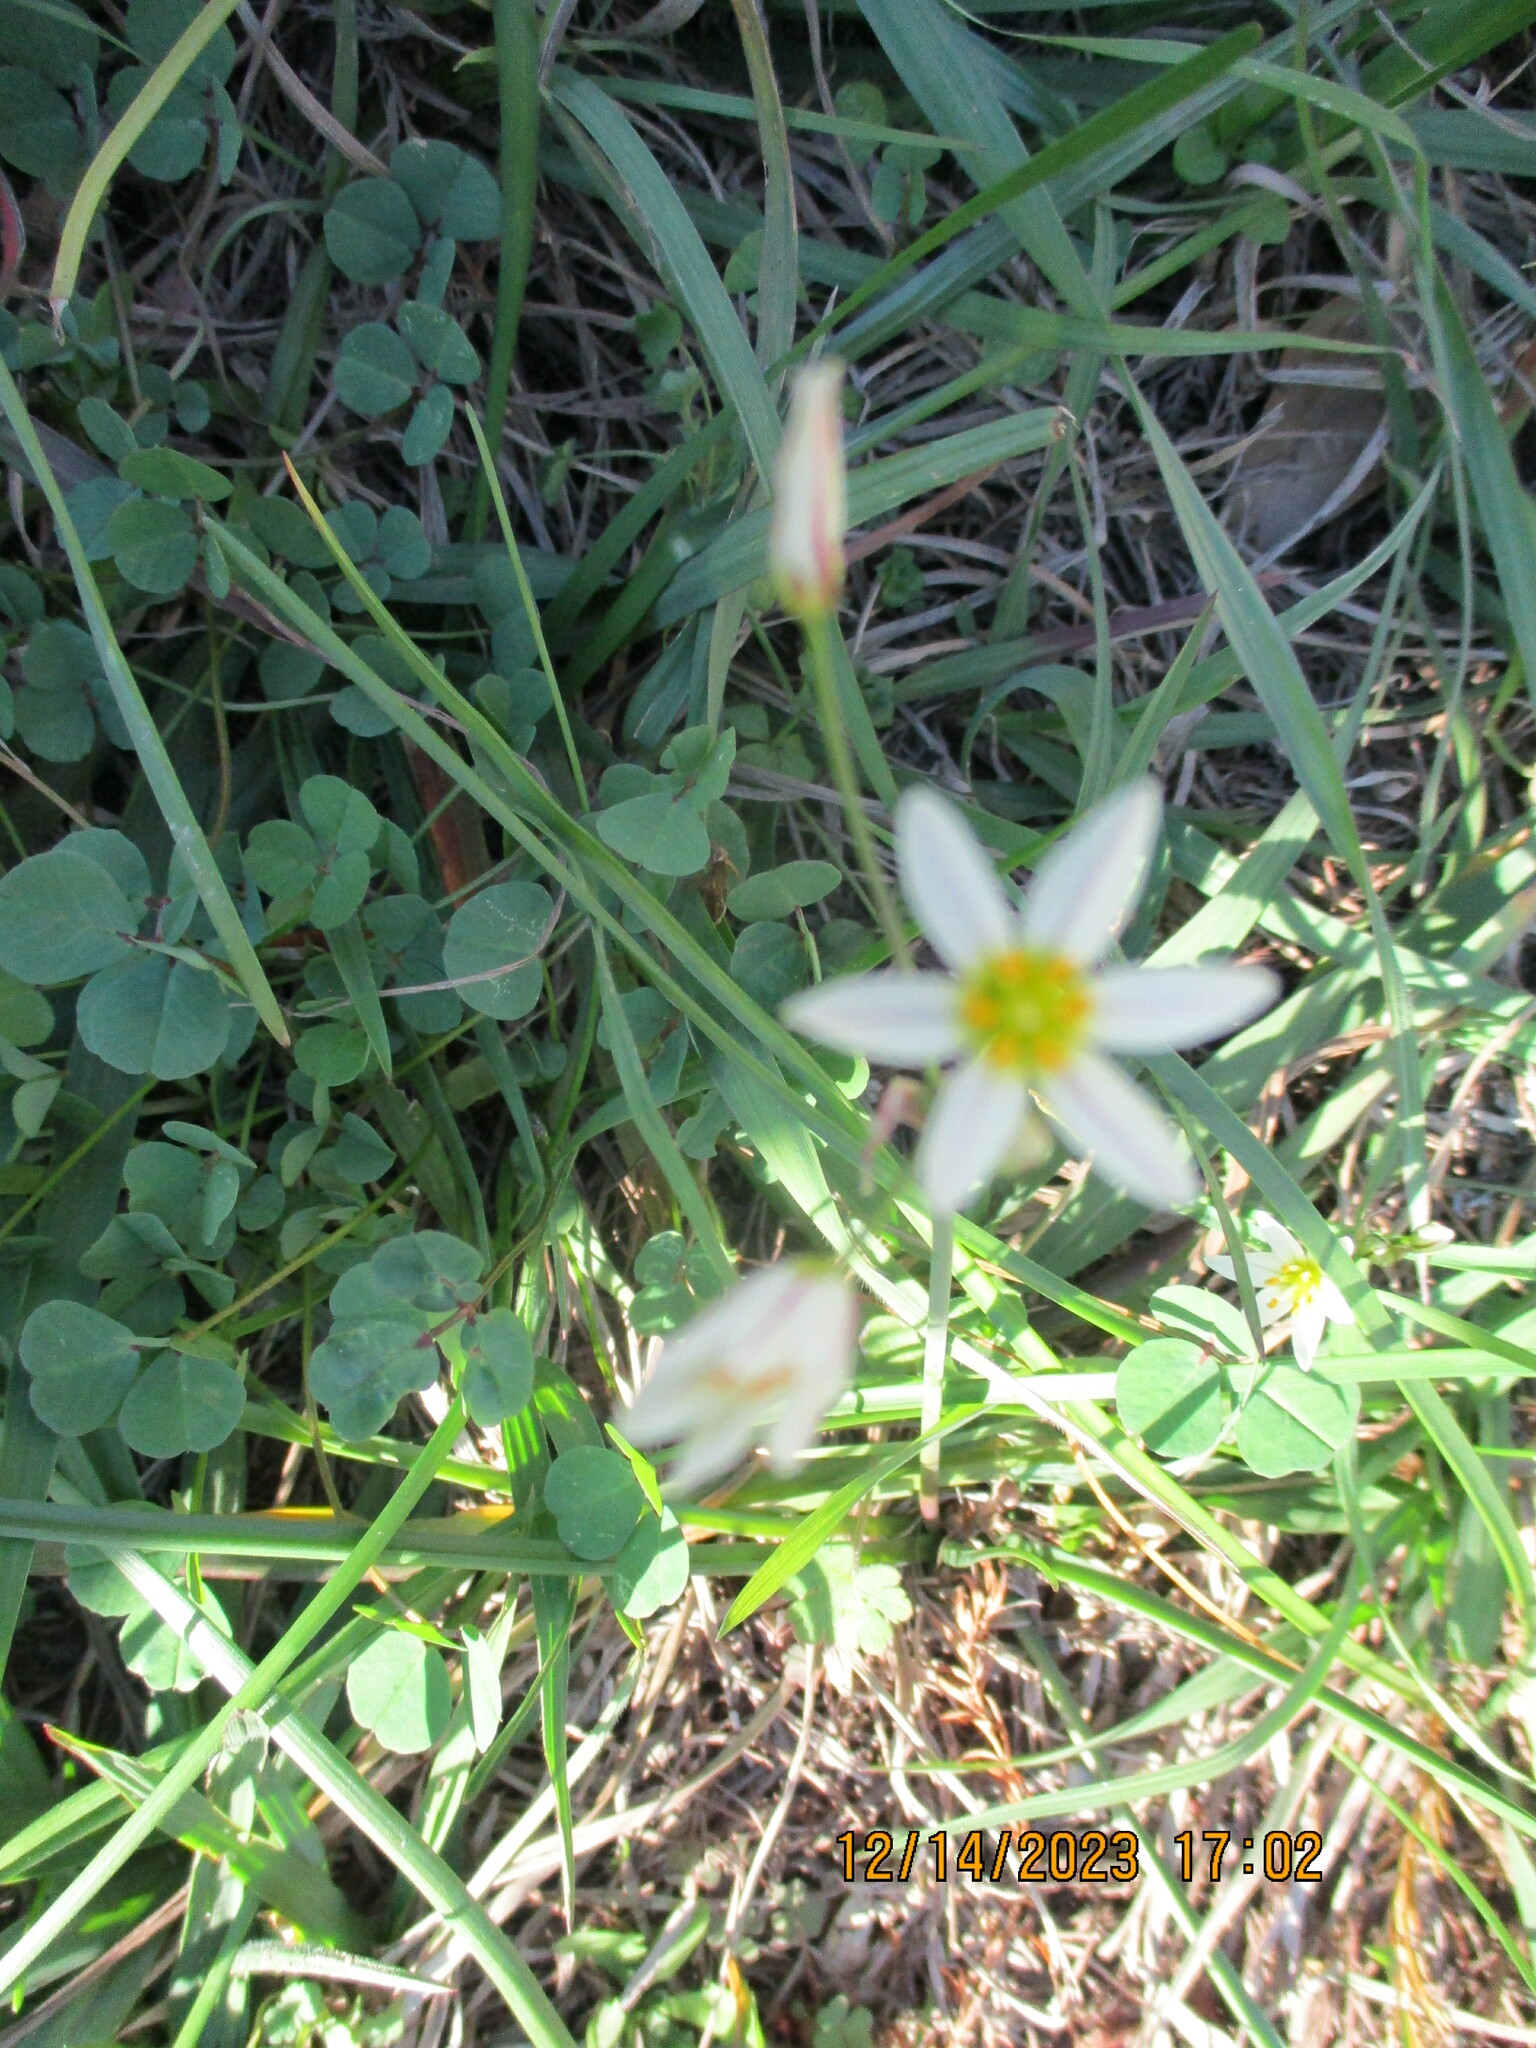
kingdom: Plantae
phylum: Tracheophyta
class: Liliopsida
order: Asparagales
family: Amaryllidaceae
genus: Nothoscordum
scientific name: Nothoscordum bivalve
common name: Crow-poison
